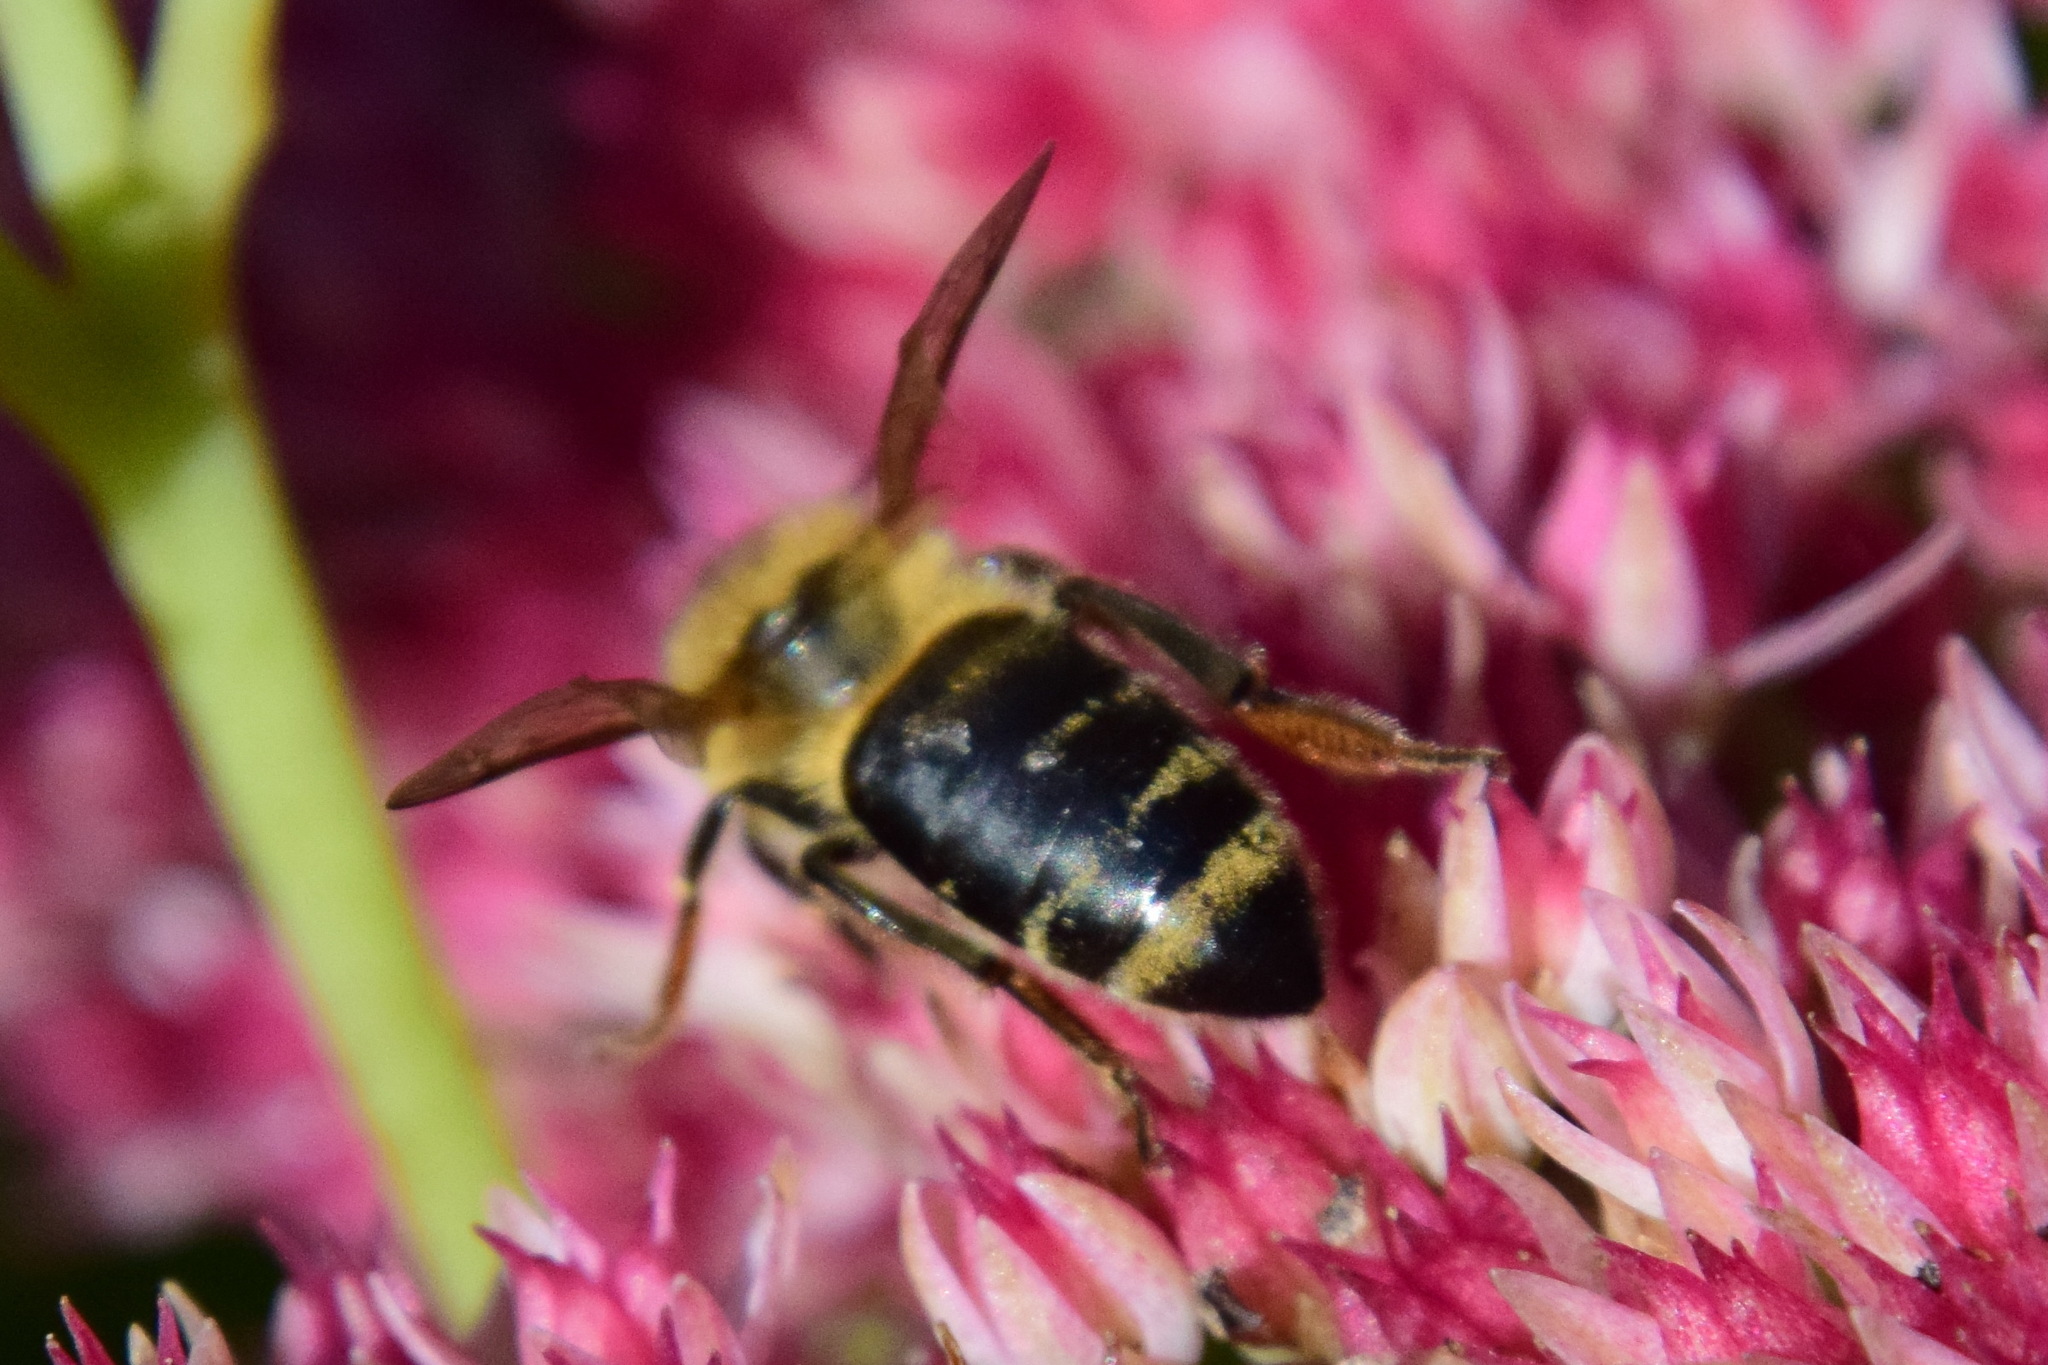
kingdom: Animalia
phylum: Arthropoda
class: Insecta
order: Hymenoptera
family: Apidae
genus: Apis
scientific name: Apis mellifera
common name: Honey bee
